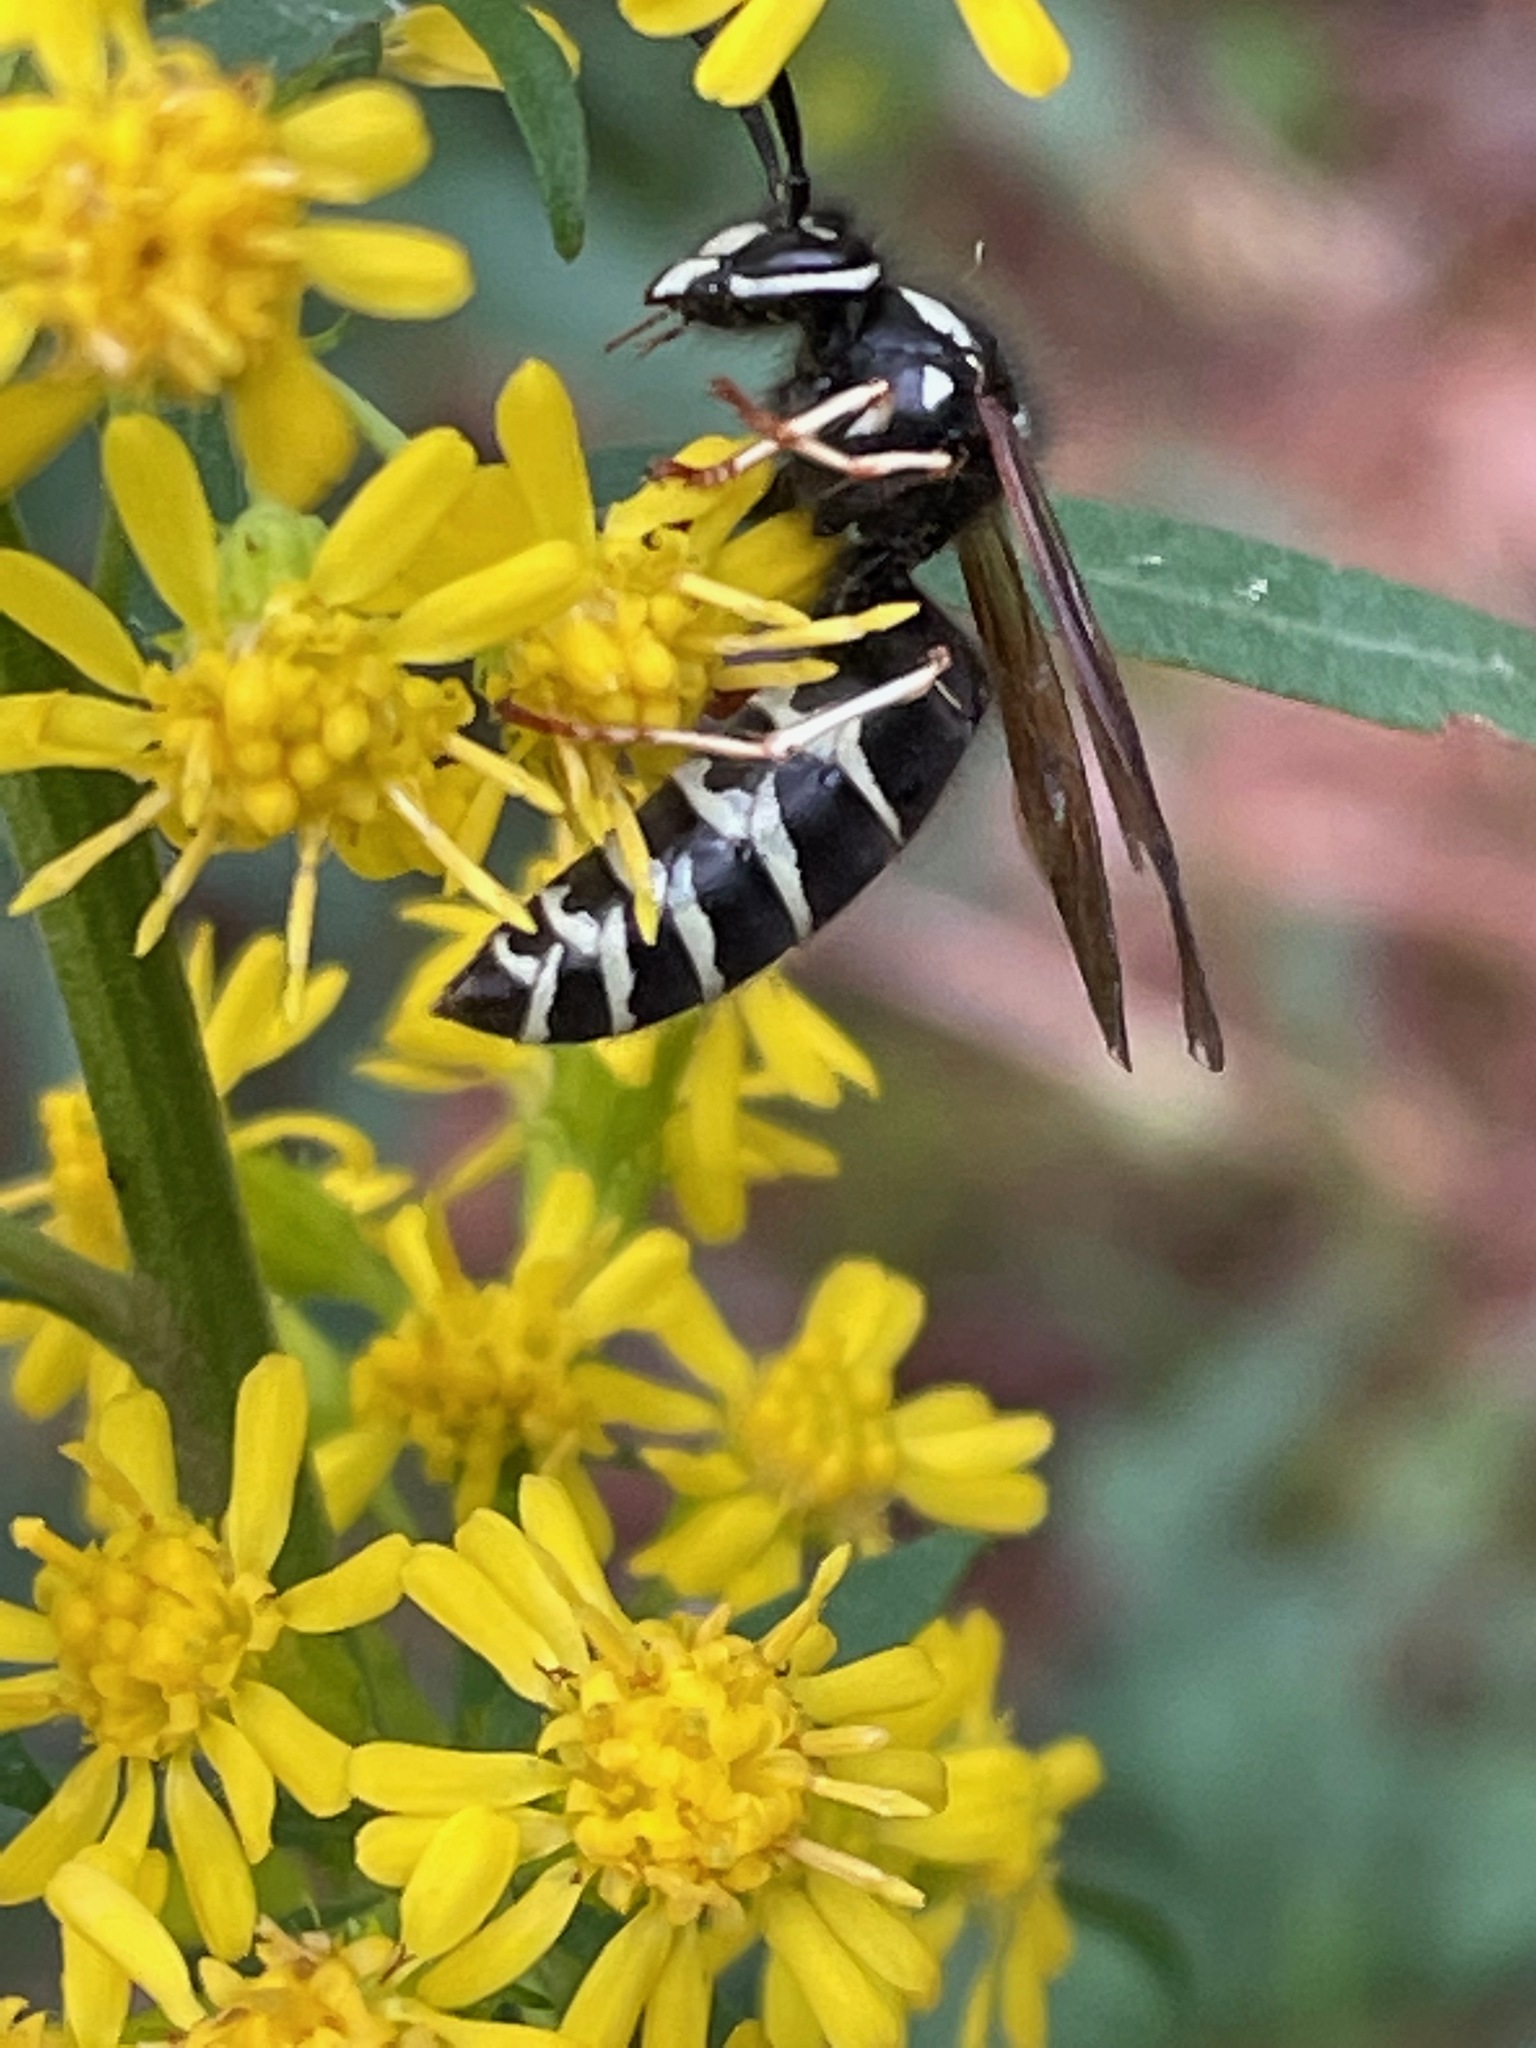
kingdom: Animalia
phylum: Arthropoda
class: Insecta
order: Hymenoptera
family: Vespidae
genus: Vespula
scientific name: Vespula consobrina
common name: Blackjacket
